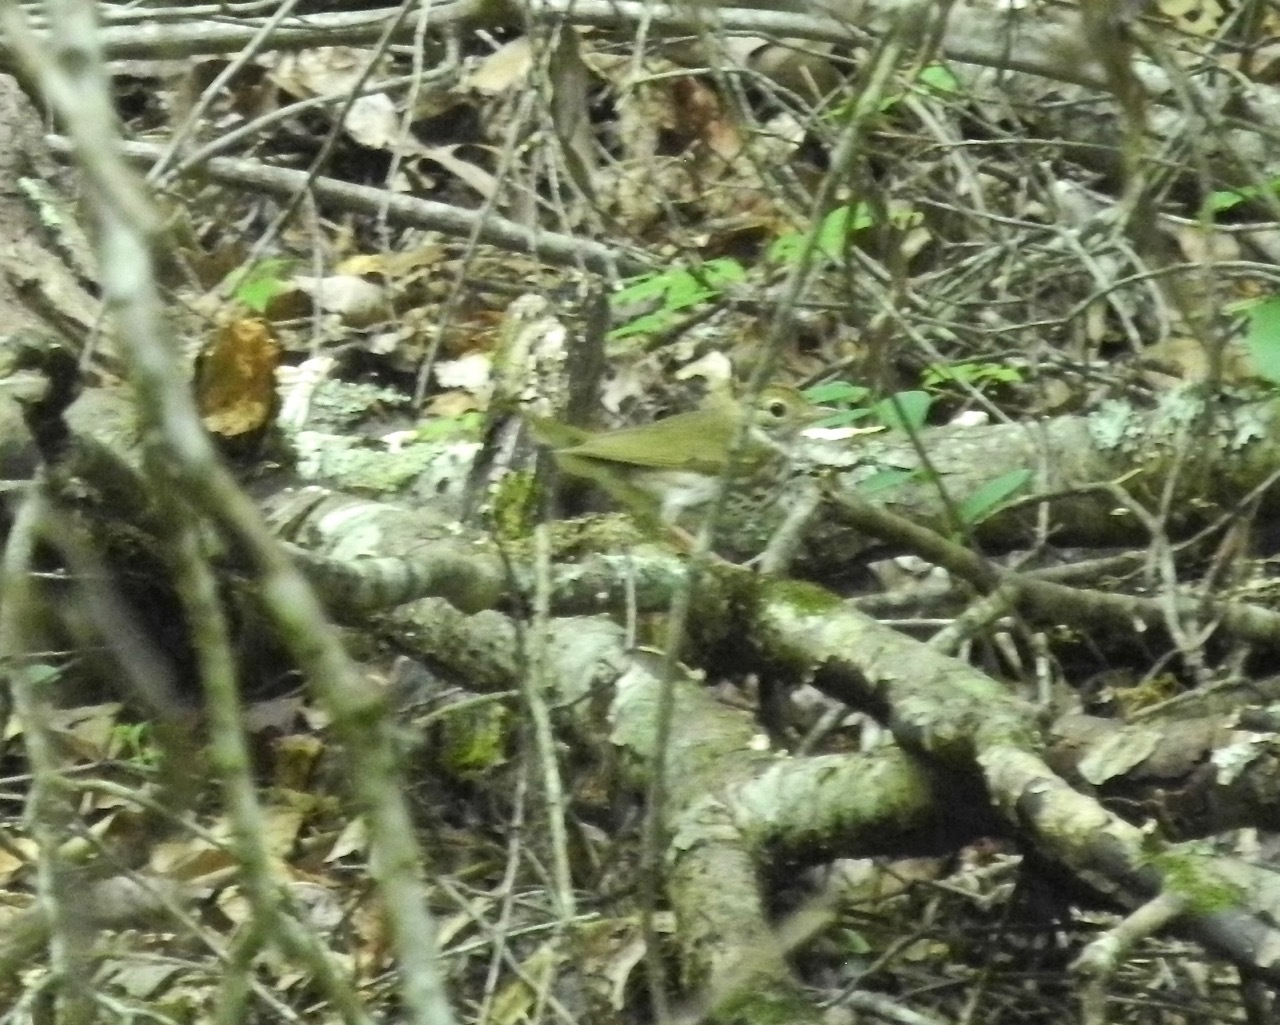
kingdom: Animalia
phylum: Chordata
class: Aves
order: Passeriformes
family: Parulidae
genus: Seiurus
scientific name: Seiurus aurocapilla
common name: Ovenbird
